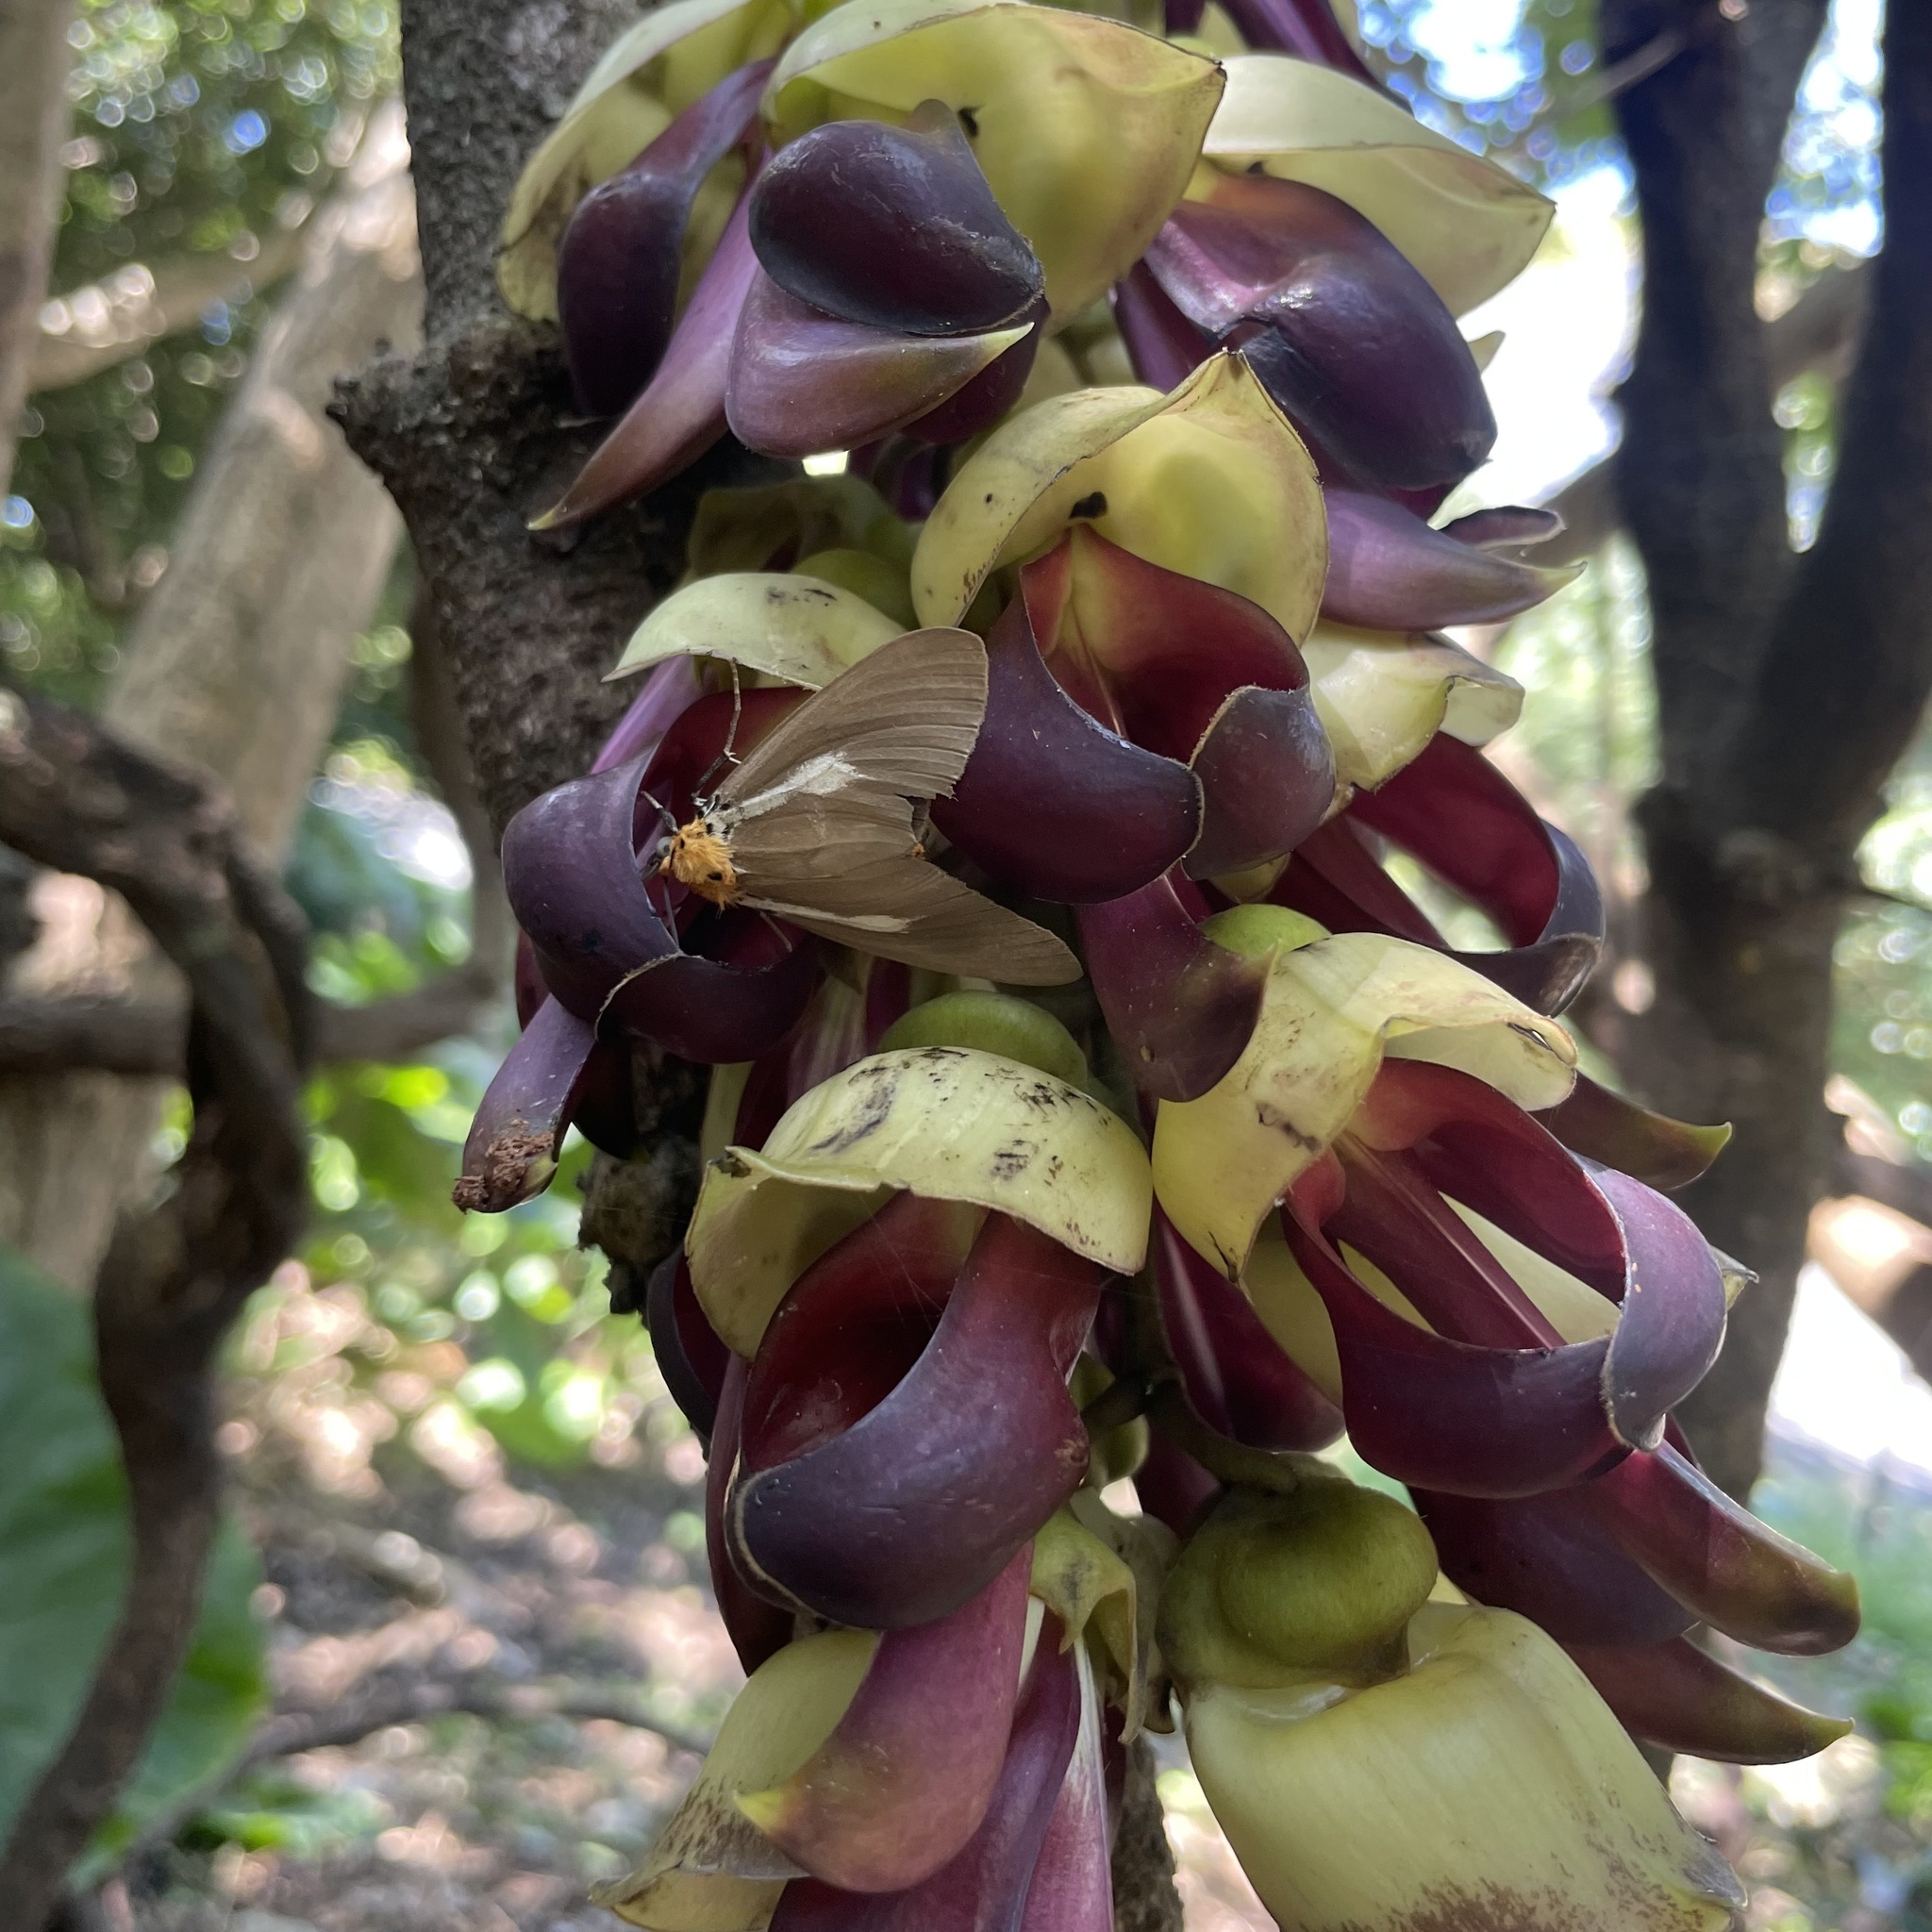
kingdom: Animalia
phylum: Arthropoda
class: Insecta
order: Lepidoptera
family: Erebidae
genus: Asota
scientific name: Asota heliconia
